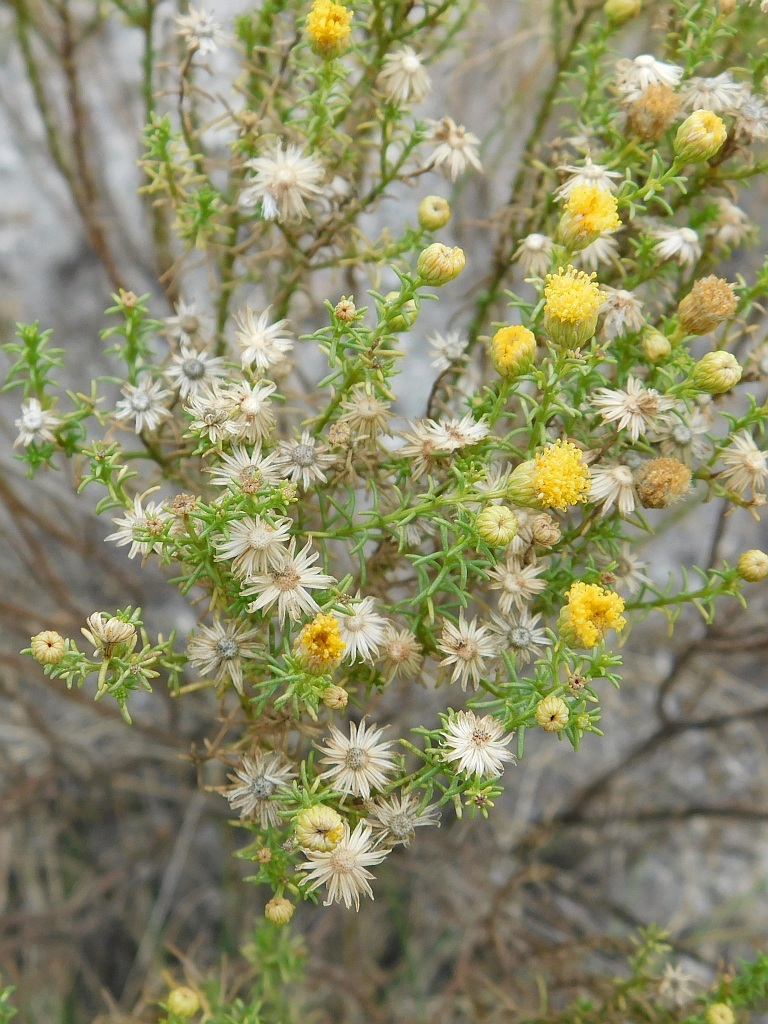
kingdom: Plantae
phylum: Tracheophyta
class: Magnoliopsida
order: Asterales
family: Asteraceae
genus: Chrysocoma
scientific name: Chrysocoma ciliata
